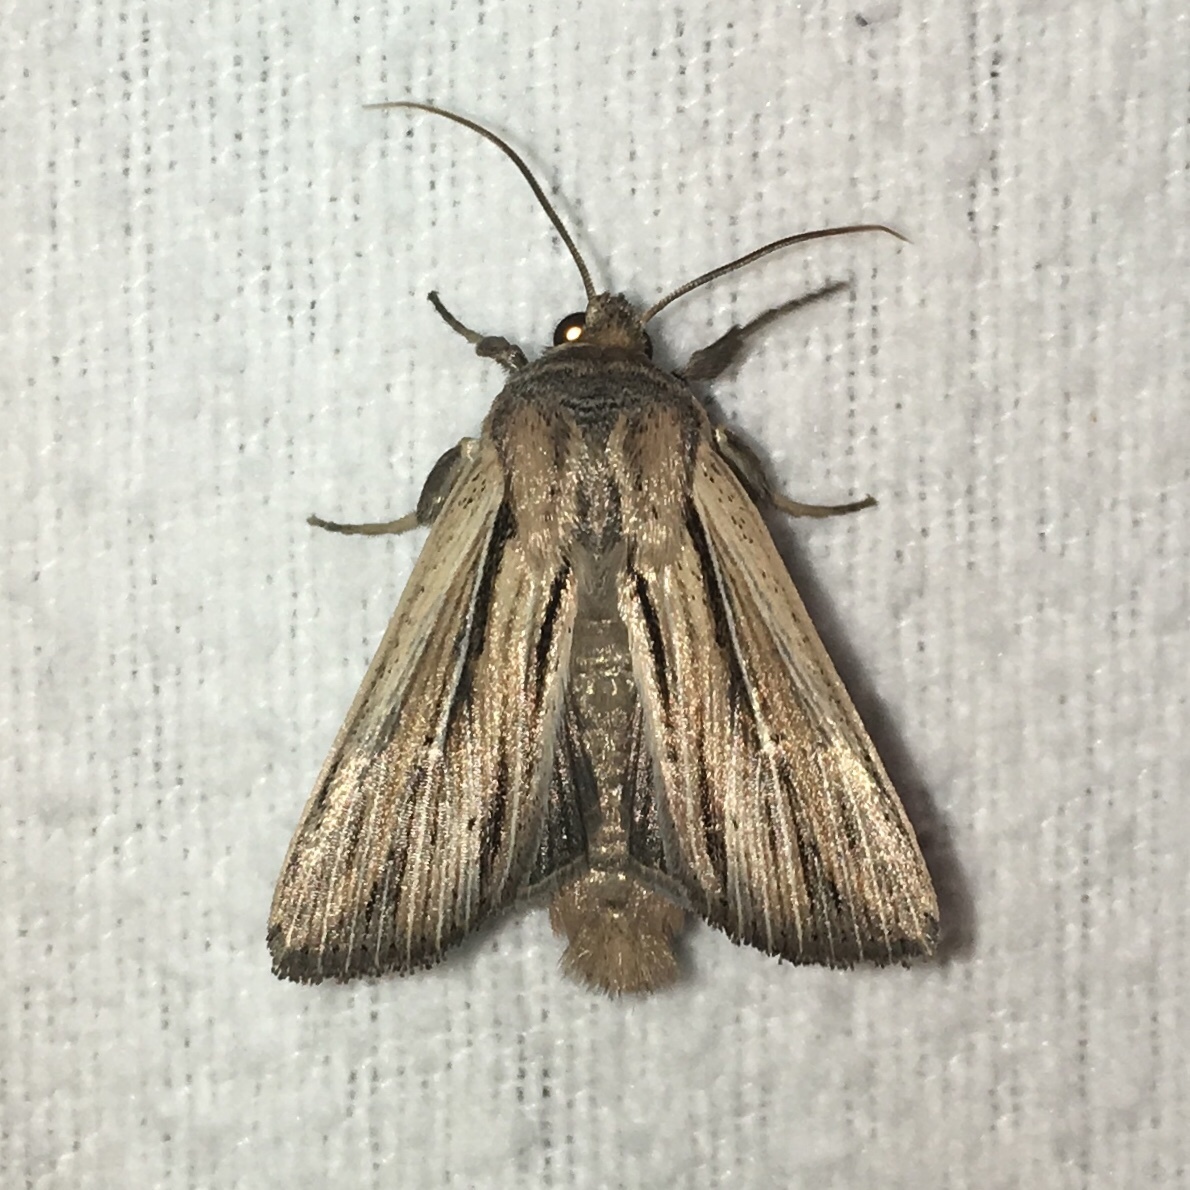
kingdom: Animalia
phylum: Arthropoda
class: Insecta
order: Lepidoptera
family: Noctuidae
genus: Leucania
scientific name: Leucania commoides
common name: Two-lined wainscot
